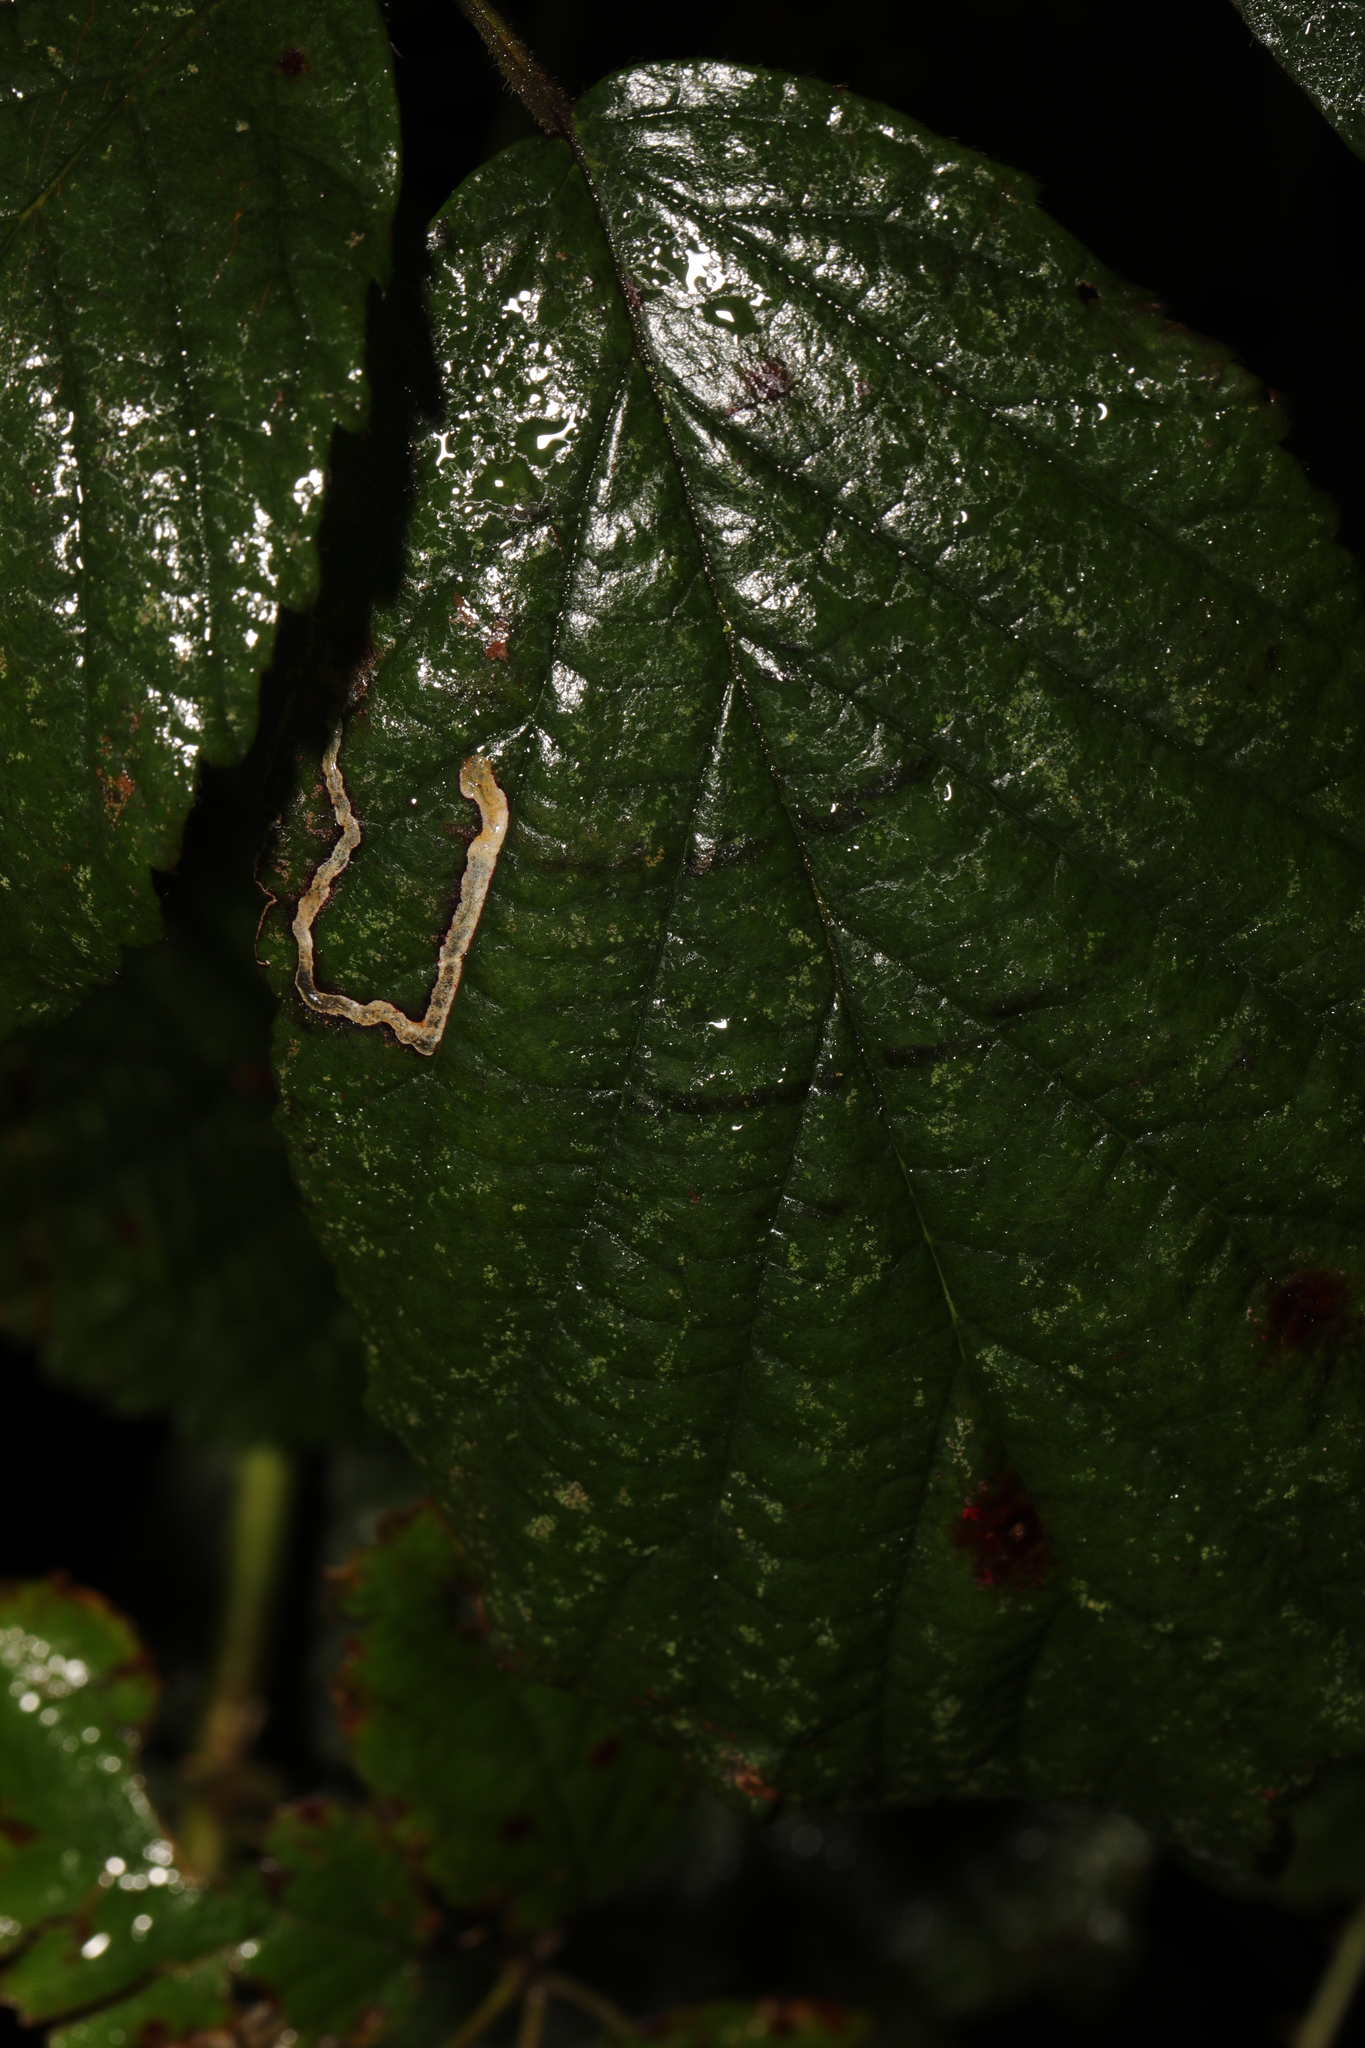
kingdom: Animalia
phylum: Arthropoda
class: Insecta
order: Lepidoptera
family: Nepticulidae
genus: Stigmella
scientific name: Stigmella aurella
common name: Golden pigmy
